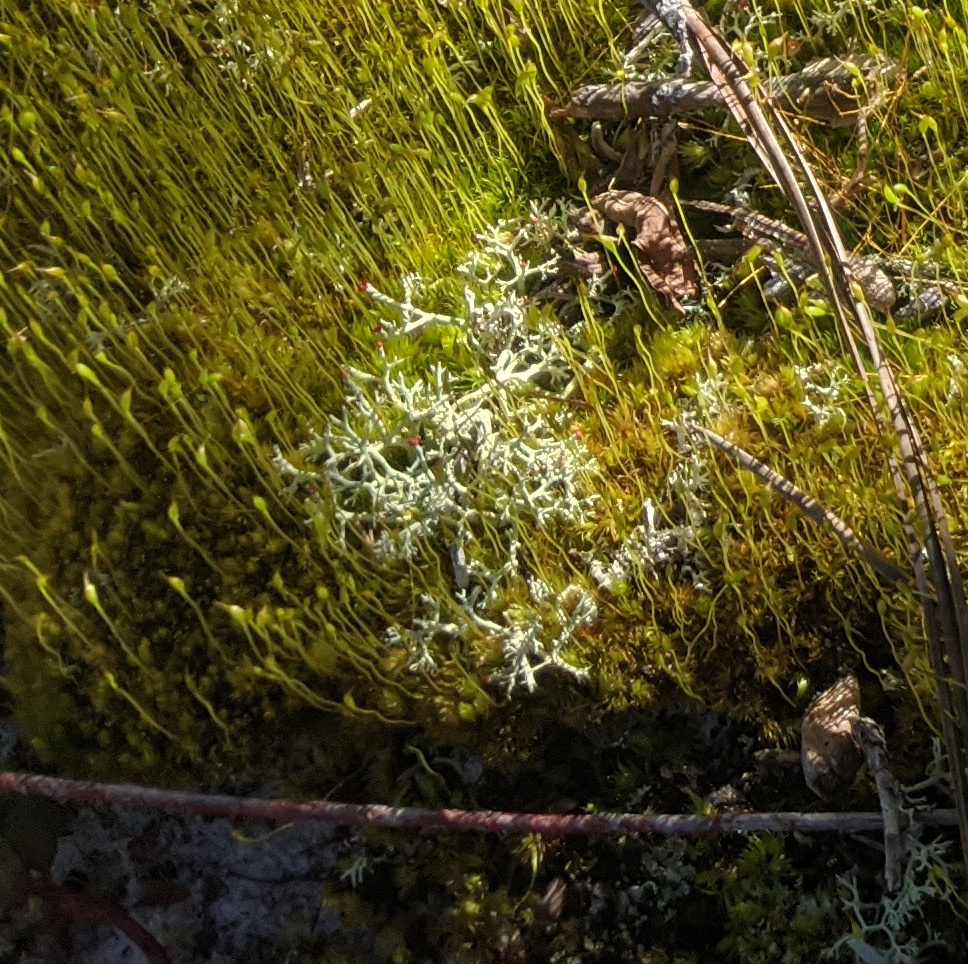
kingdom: Fungi
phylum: Ascomycota
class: Lecanoromycetes
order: Lecanorales
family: Cladoniaceae
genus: Cladonia
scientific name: Cladonia leporina
